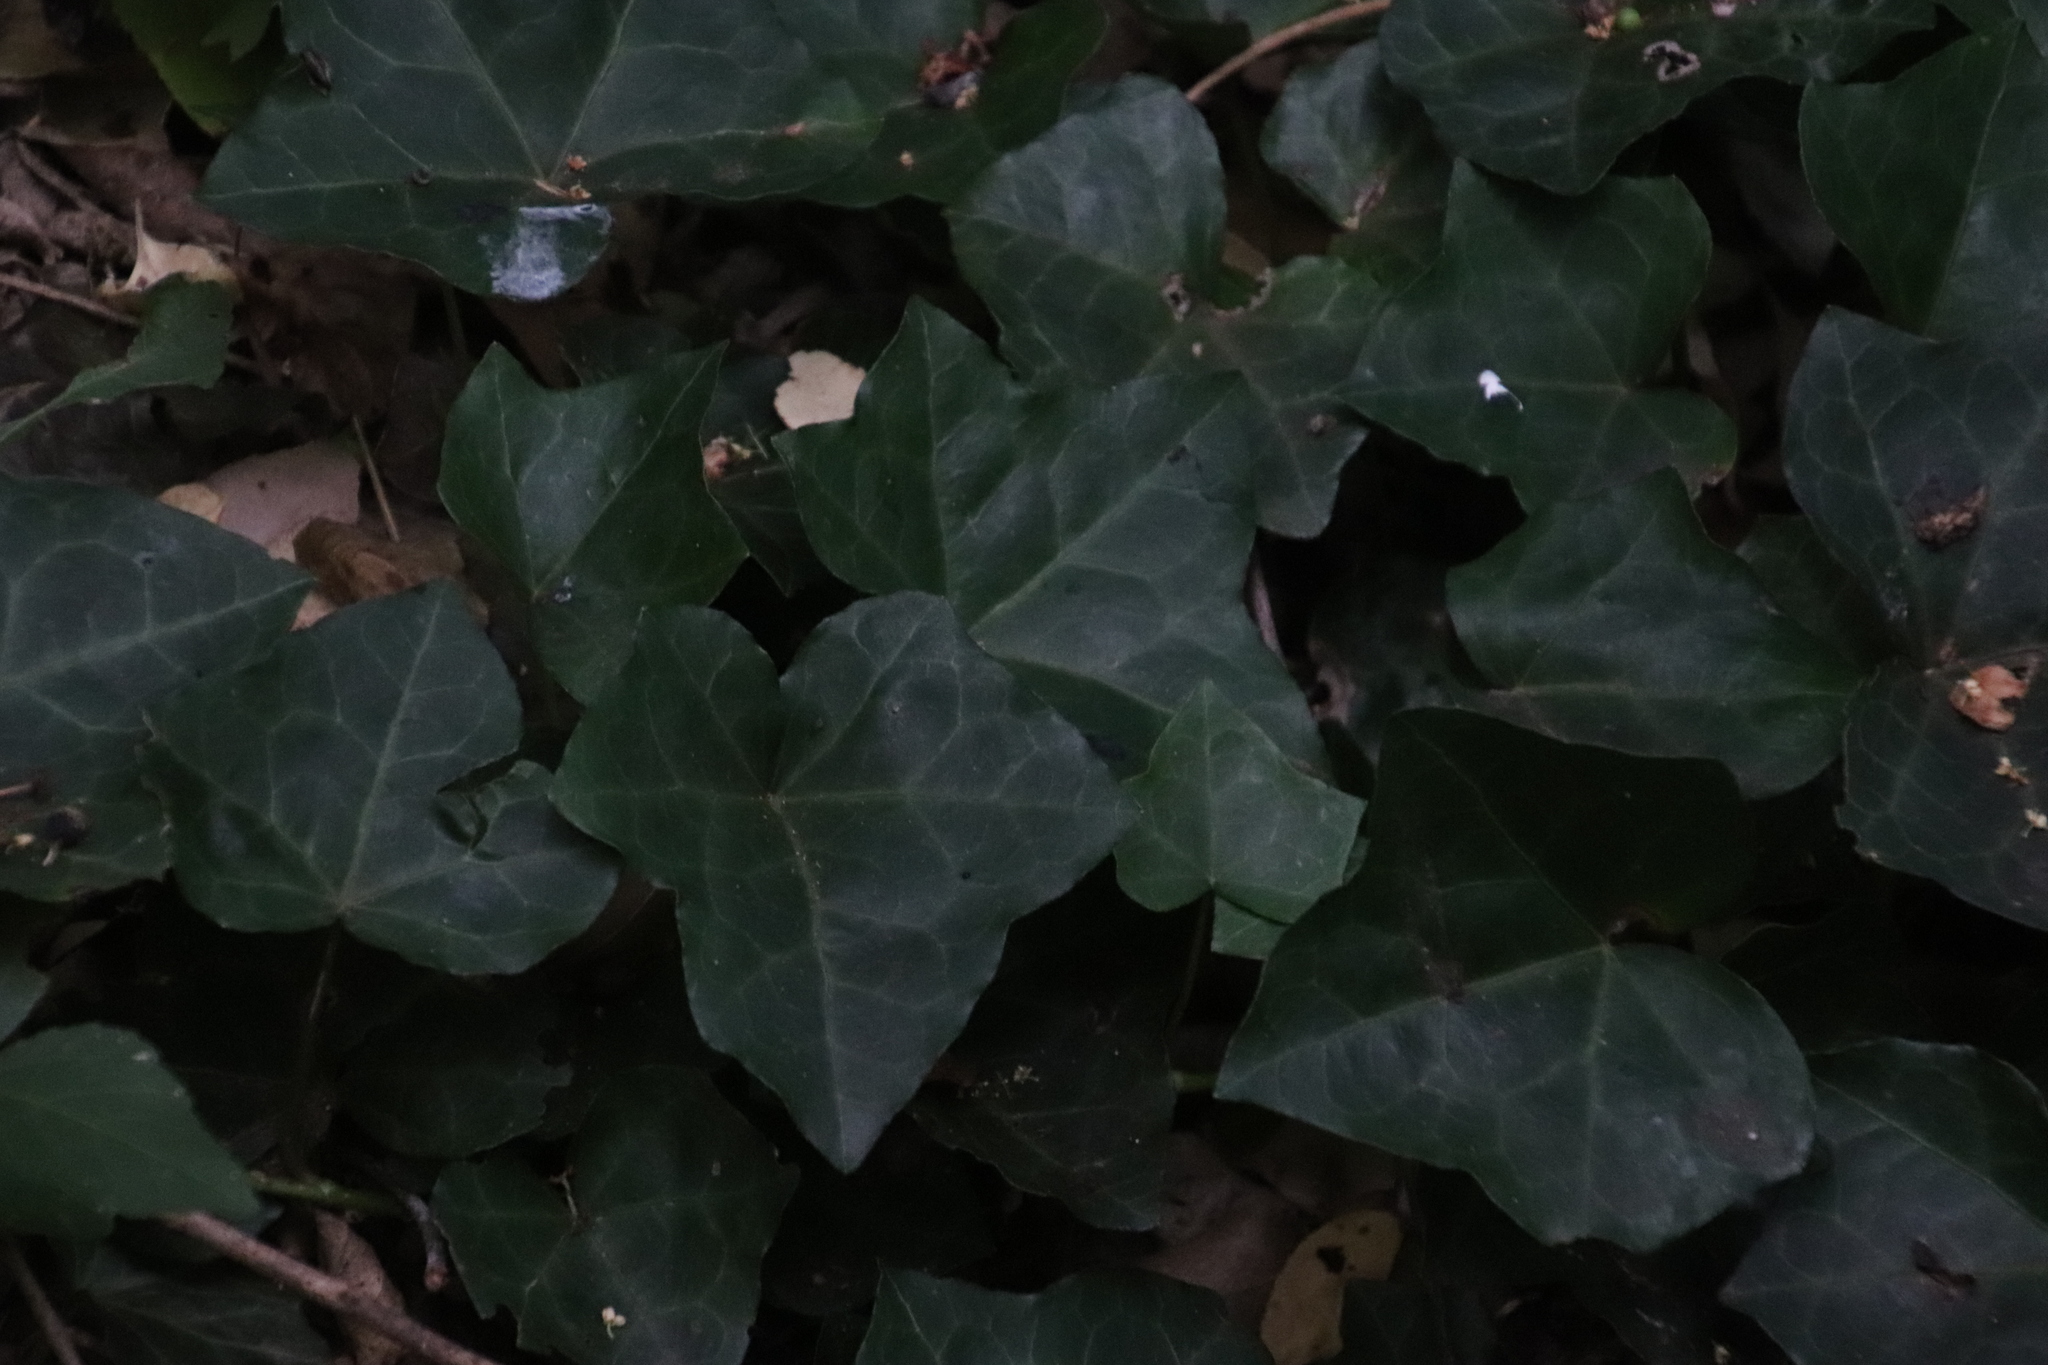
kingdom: Plantae
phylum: Tracheophyta
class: Magnoliopsida
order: Apiales
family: Araliaceae
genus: Hedera
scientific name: Hedera helix
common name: Ivy
